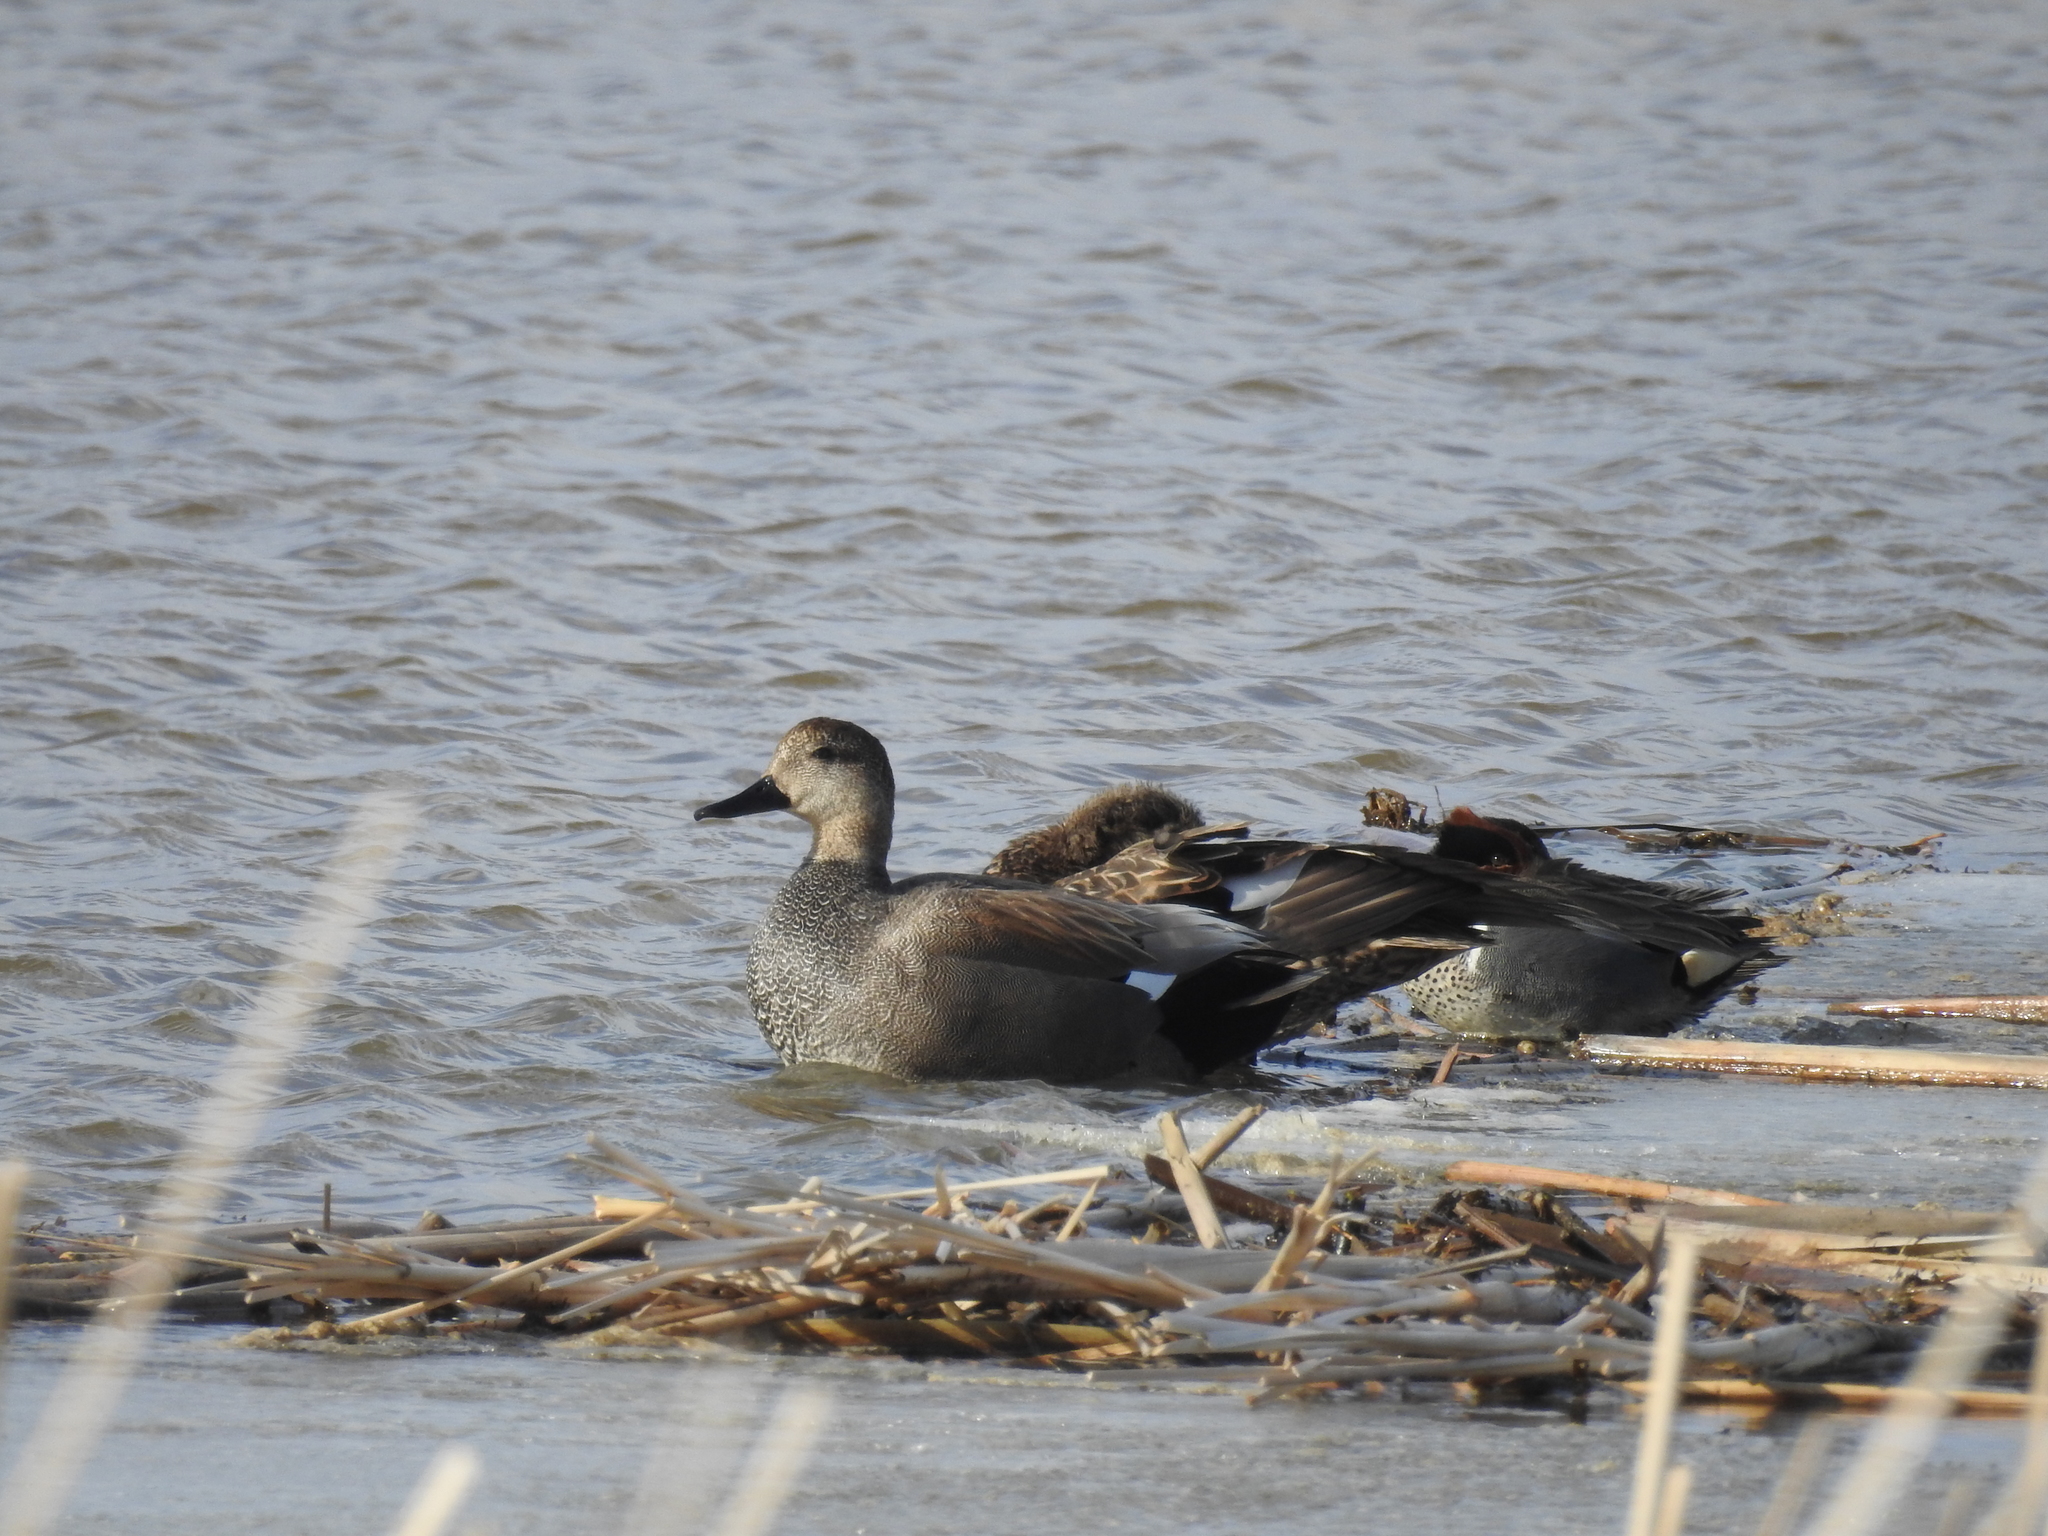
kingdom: Animalia
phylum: Chordata
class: Aves
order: Anseriformes
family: Anatidae
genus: Mareca
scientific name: Mareca strepera
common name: Gadwall
